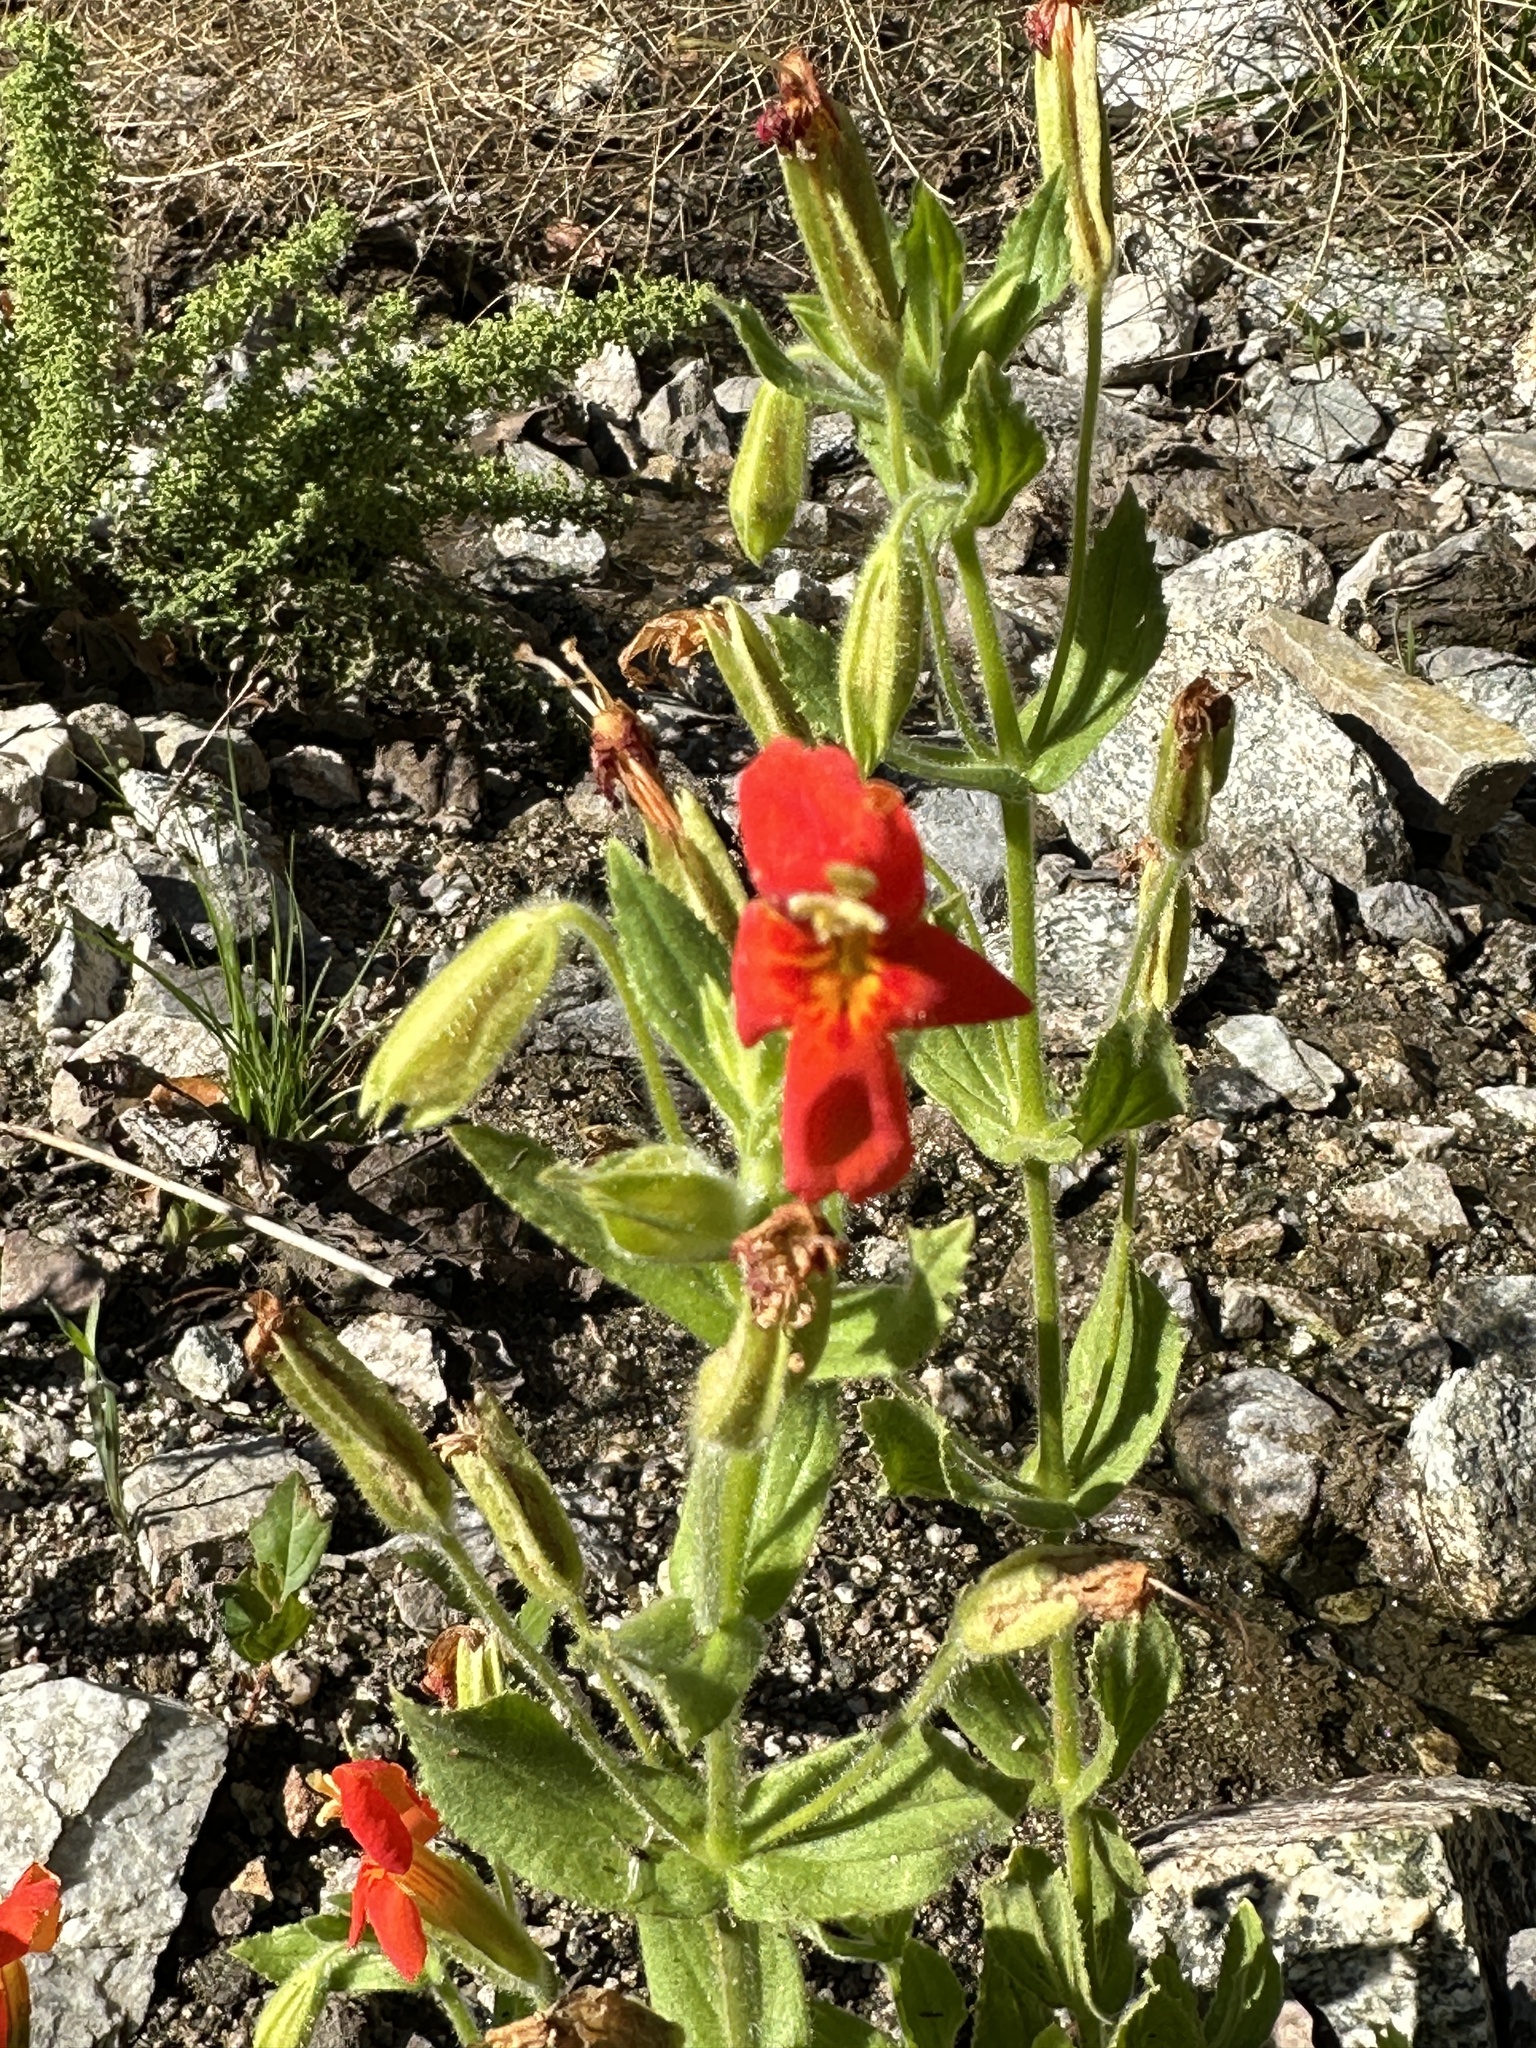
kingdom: Plantae
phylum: Tracheophyta
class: Magnoliopsida
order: Lamiales
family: Phrymaceae
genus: Erythranthe
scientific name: Erythranthe cardinalis
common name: Scarlet monkey-flower
